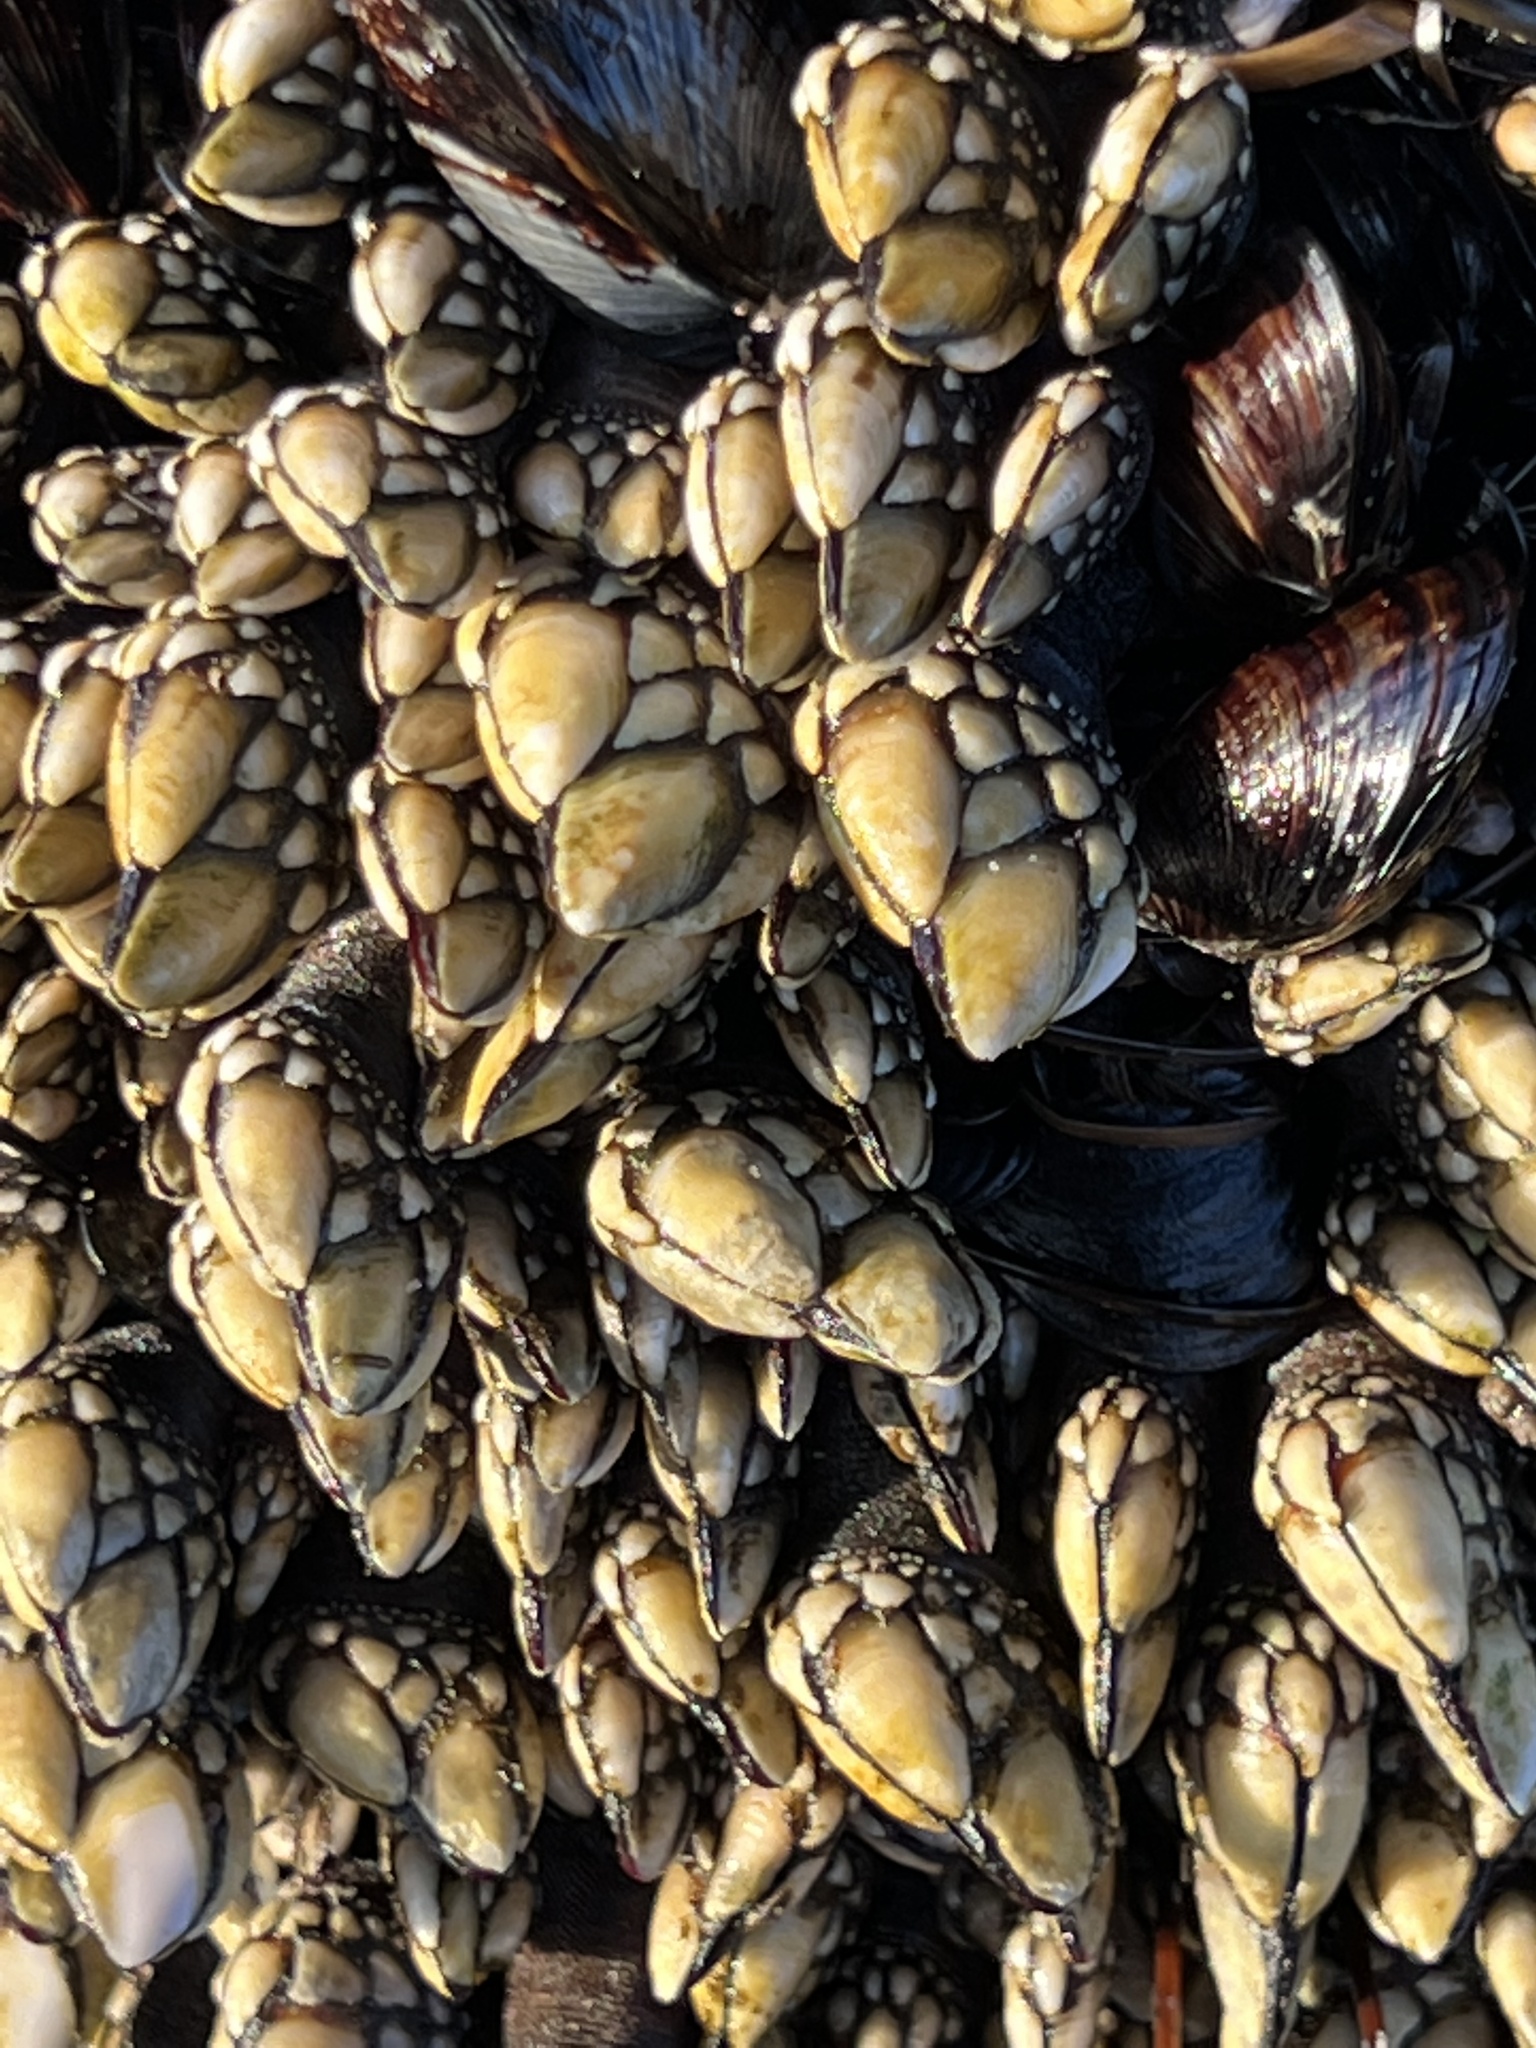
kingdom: Animalia
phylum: Arthropoda
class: Maxillopoda
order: Pedunculata
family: Pollicipedidae
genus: Pollicipes
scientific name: Pollicipes polymerus
